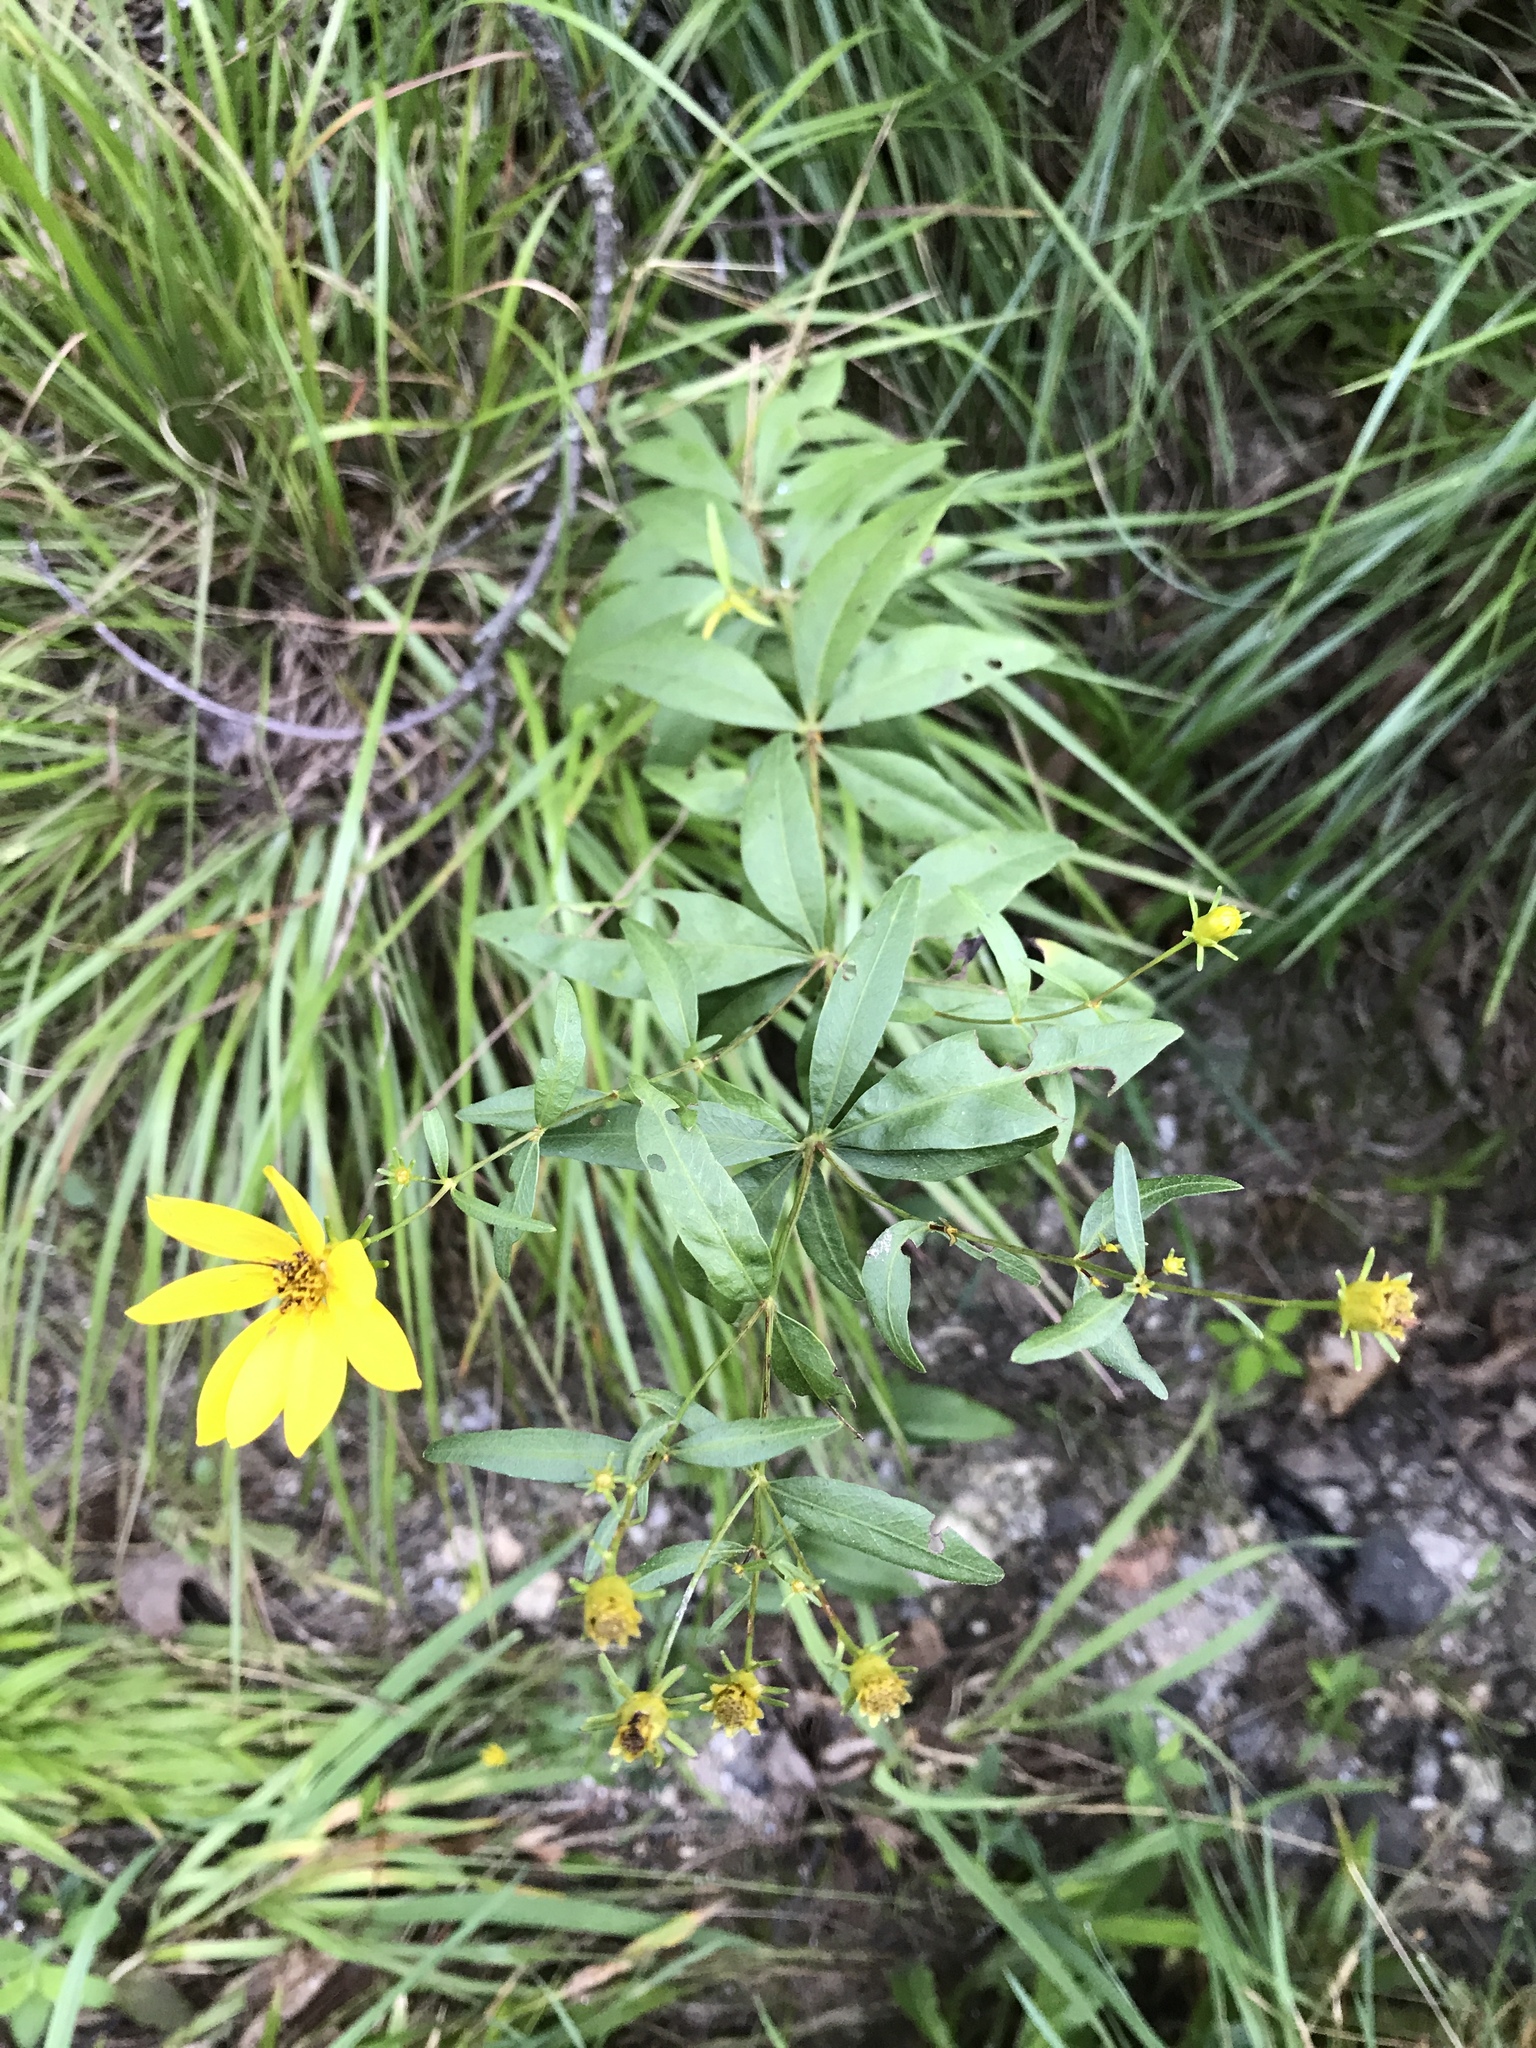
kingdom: Plantae
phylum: Tracheophyta
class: Magnoliopsida
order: Asterales
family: Asteraceae
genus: Coreopsis
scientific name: Coreopsis major
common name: Forest tickseed
